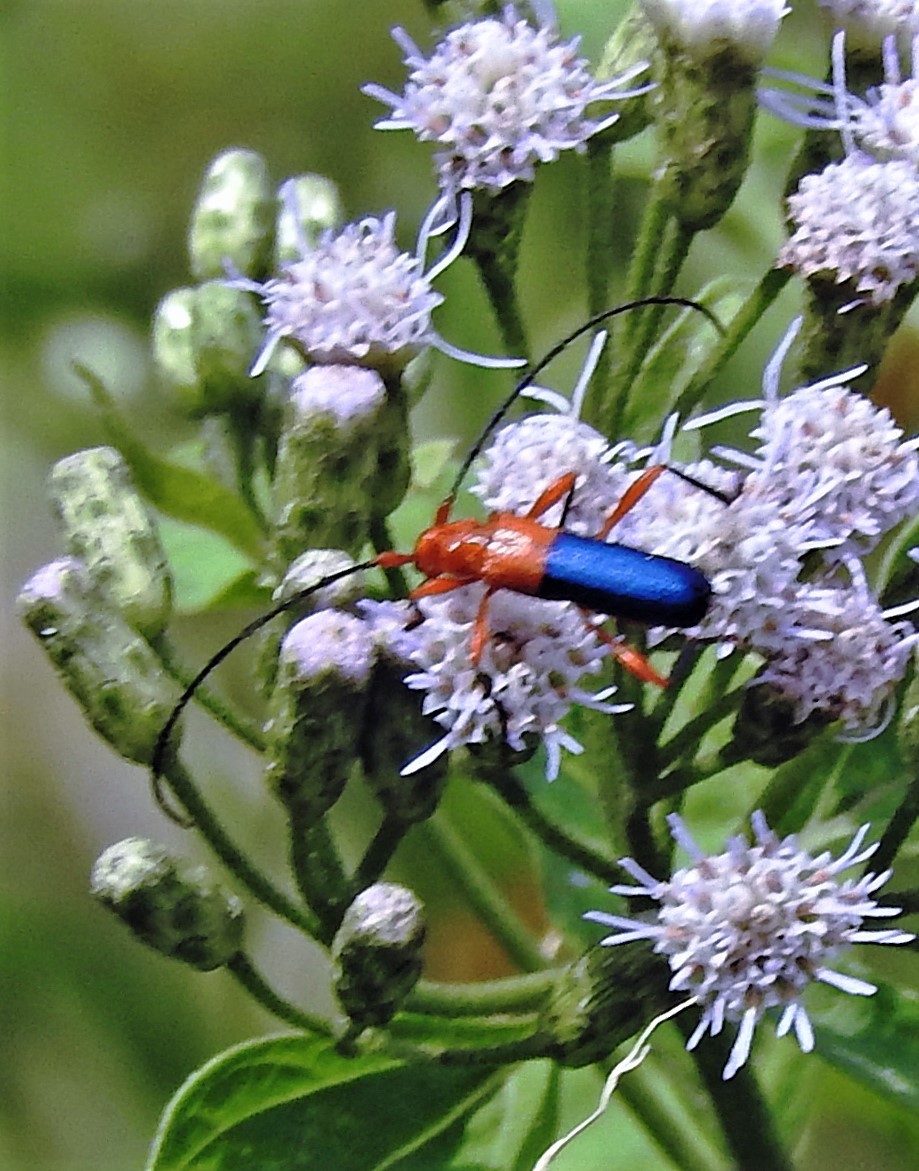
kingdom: Animalia
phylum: Arthropoda
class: Insecta
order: Coleoptera
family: Cerambycidae
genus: Ethemon
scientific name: Ethemon basale
